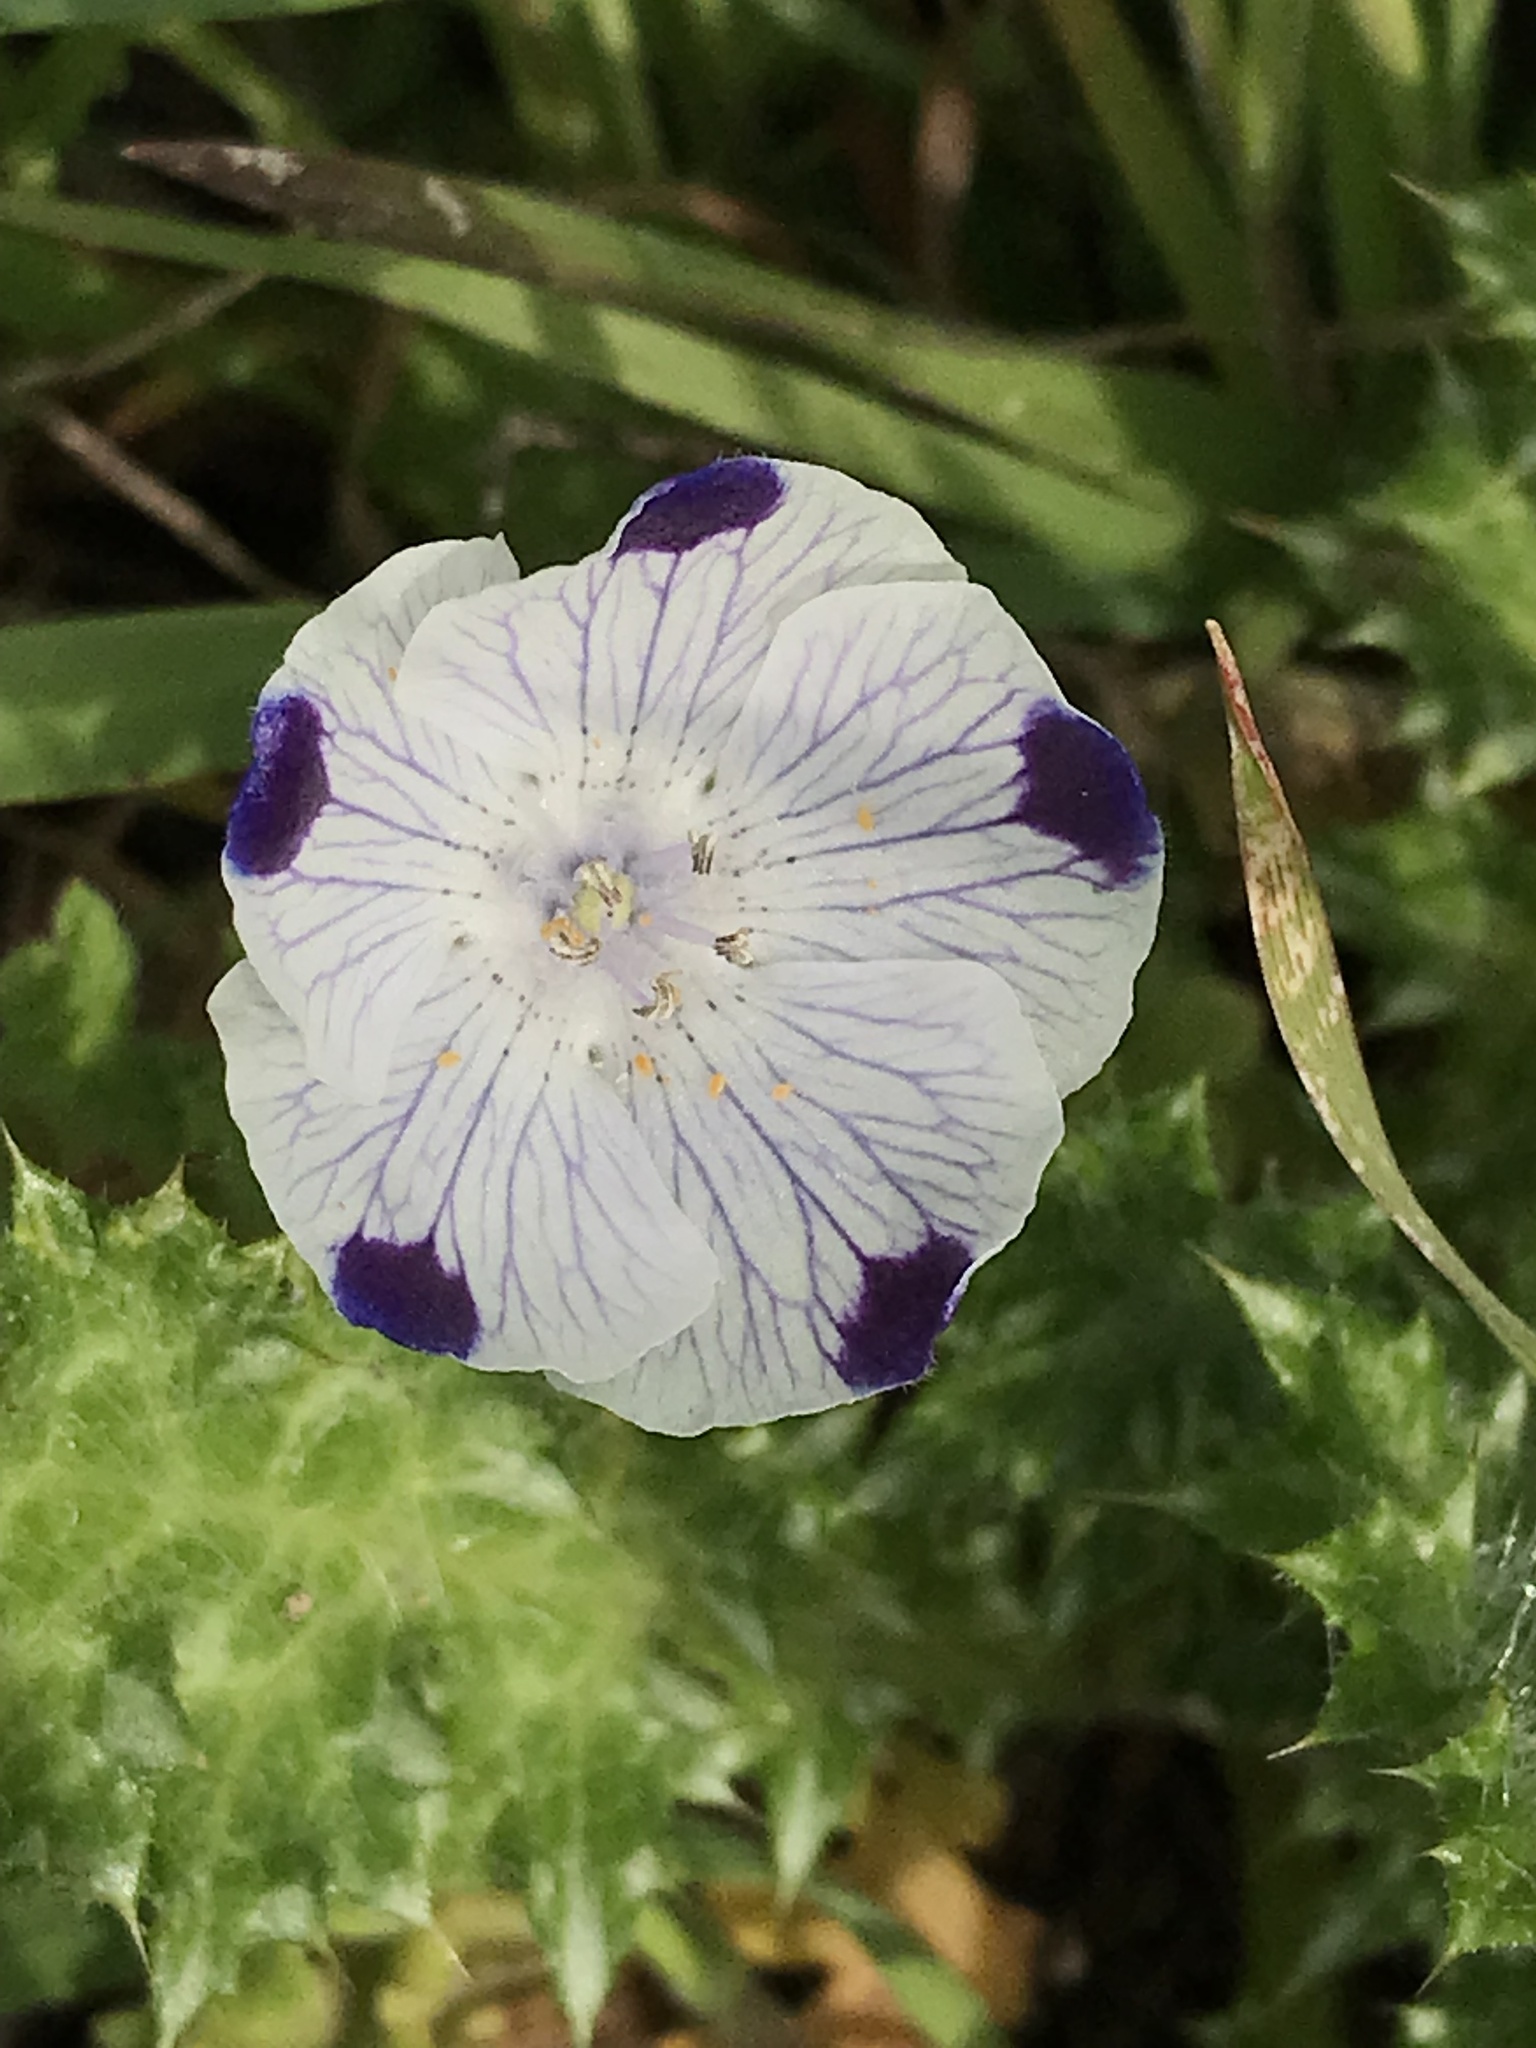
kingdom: Plantae
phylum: Tracheophyta
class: Magnoliopsida
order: Boraginales
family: Hydrophyllaceae
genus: Nemophila
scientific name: Nemophila maculata
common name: Fivespot
